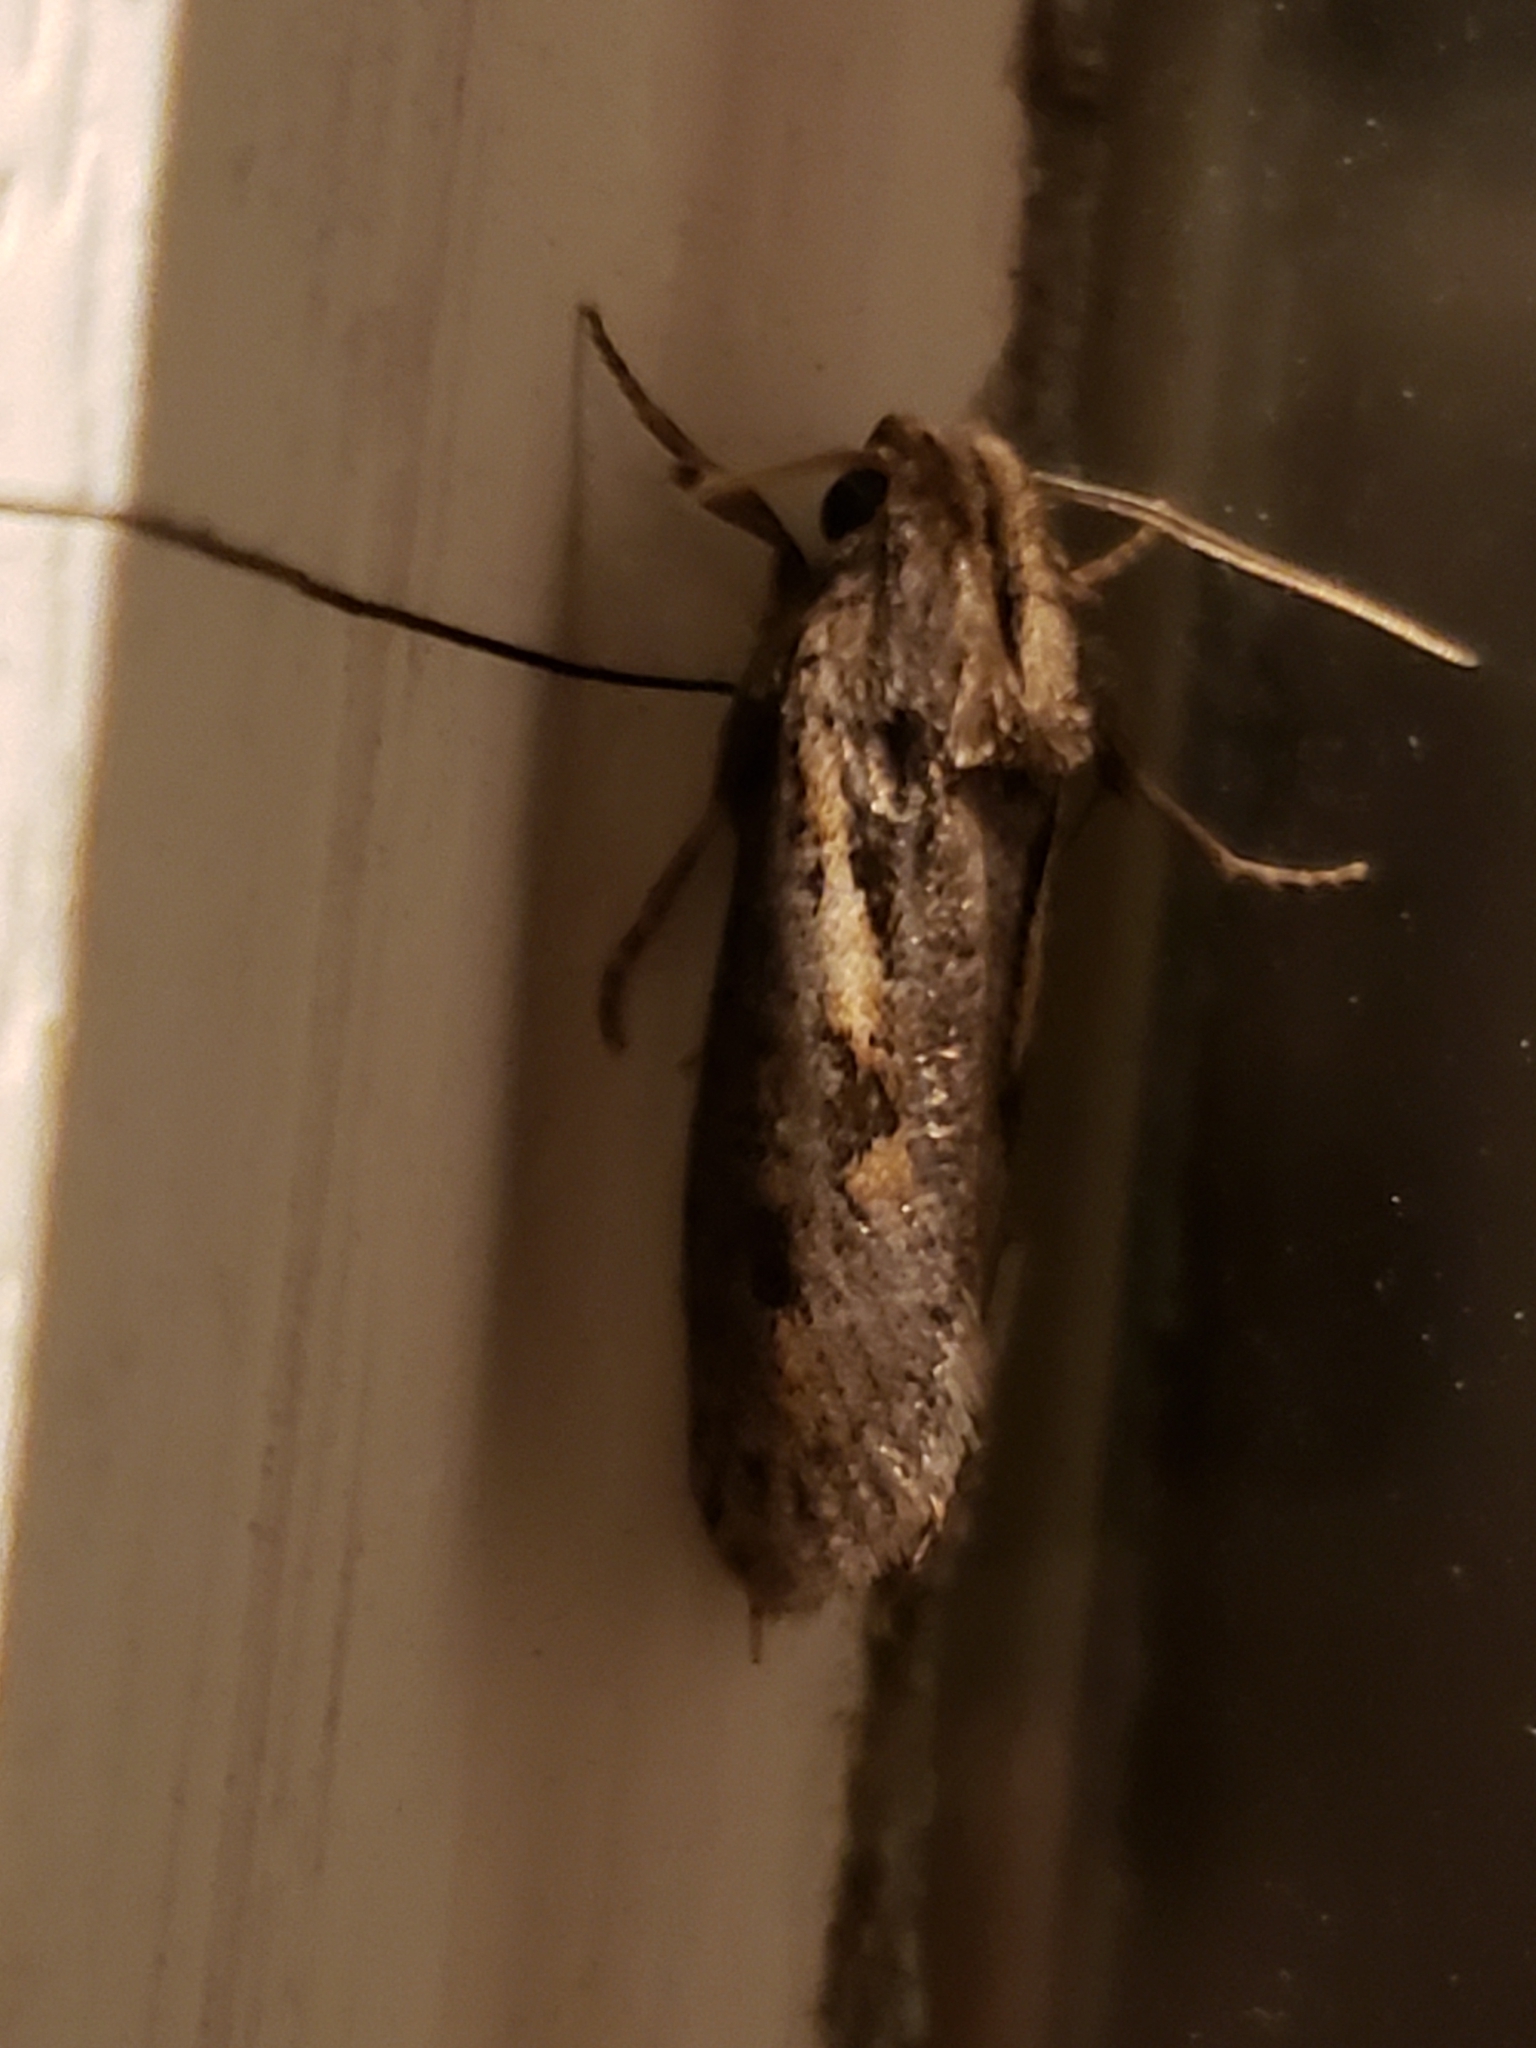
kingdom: Animalia
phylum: Arthropoda
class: Insecta
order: Lepidoptera
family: Tineidae
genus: Acrolophus
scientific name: Acrolophus popeanella
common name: Clemens' grass tubeworm moth
